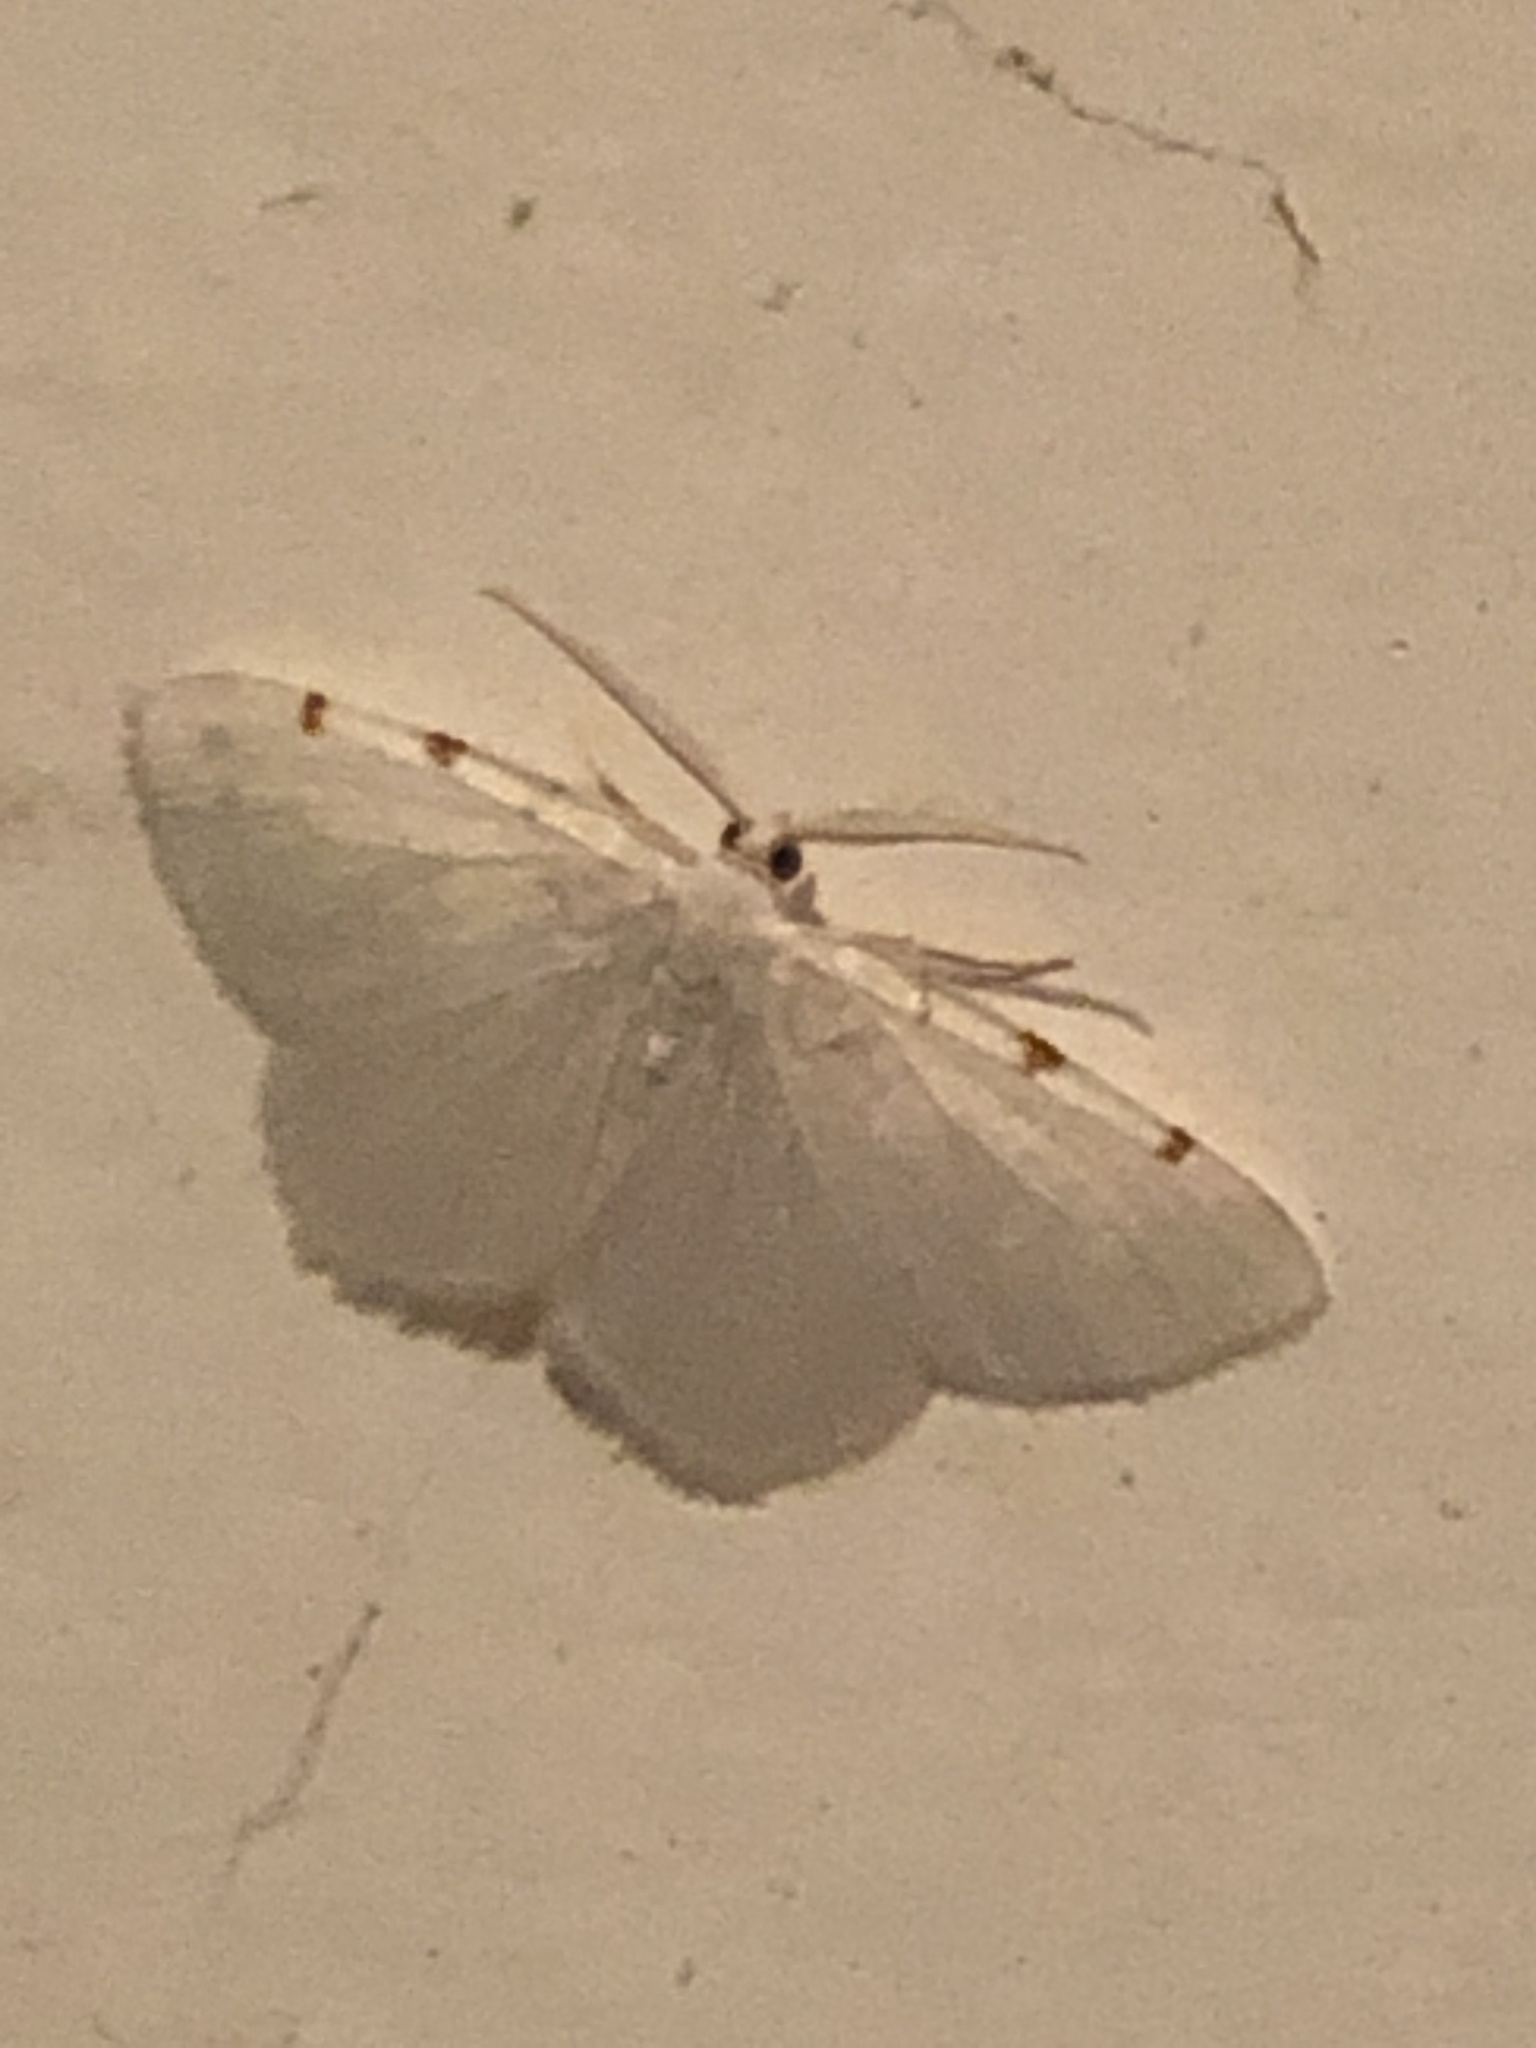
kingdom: Animalia
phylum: Arthropoda
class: Insecta
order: Lepidoptera
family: Geometridae
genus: Macaria
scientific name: Macaria pustularia
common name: Lesser maple spanworm moth
